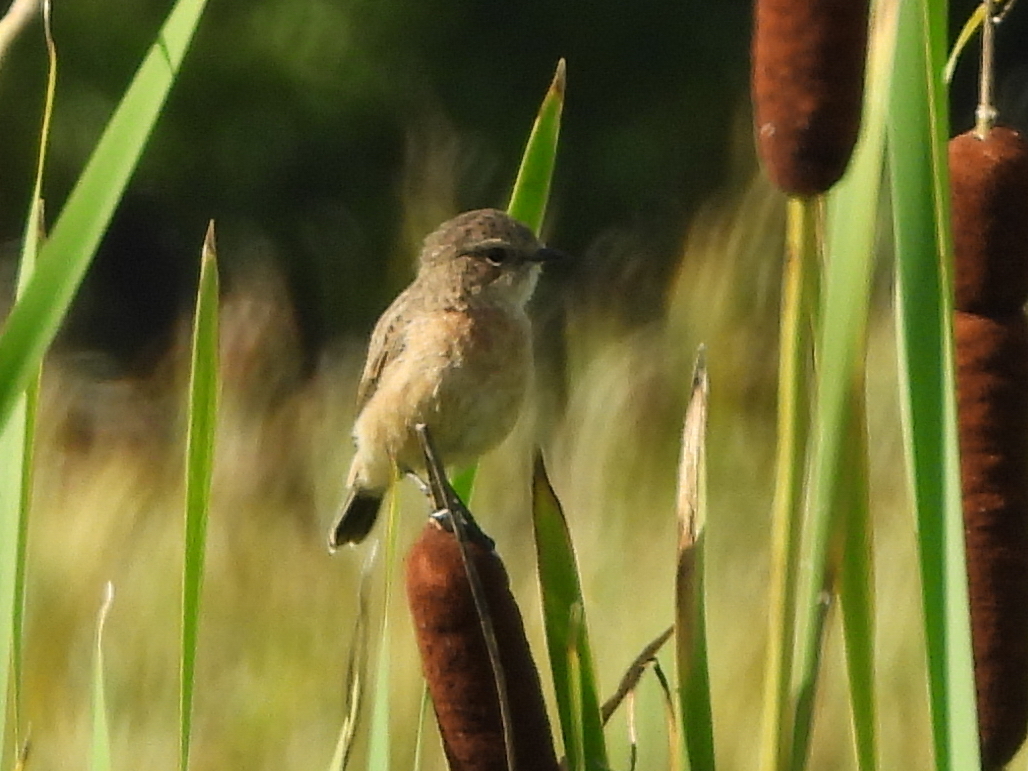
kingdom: Animalia
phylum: Chordata
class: Aves
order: Passeriformes
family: Muscicapidae
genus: Saxicola
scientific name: Saxicola maurus
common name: Siberian stonechat
